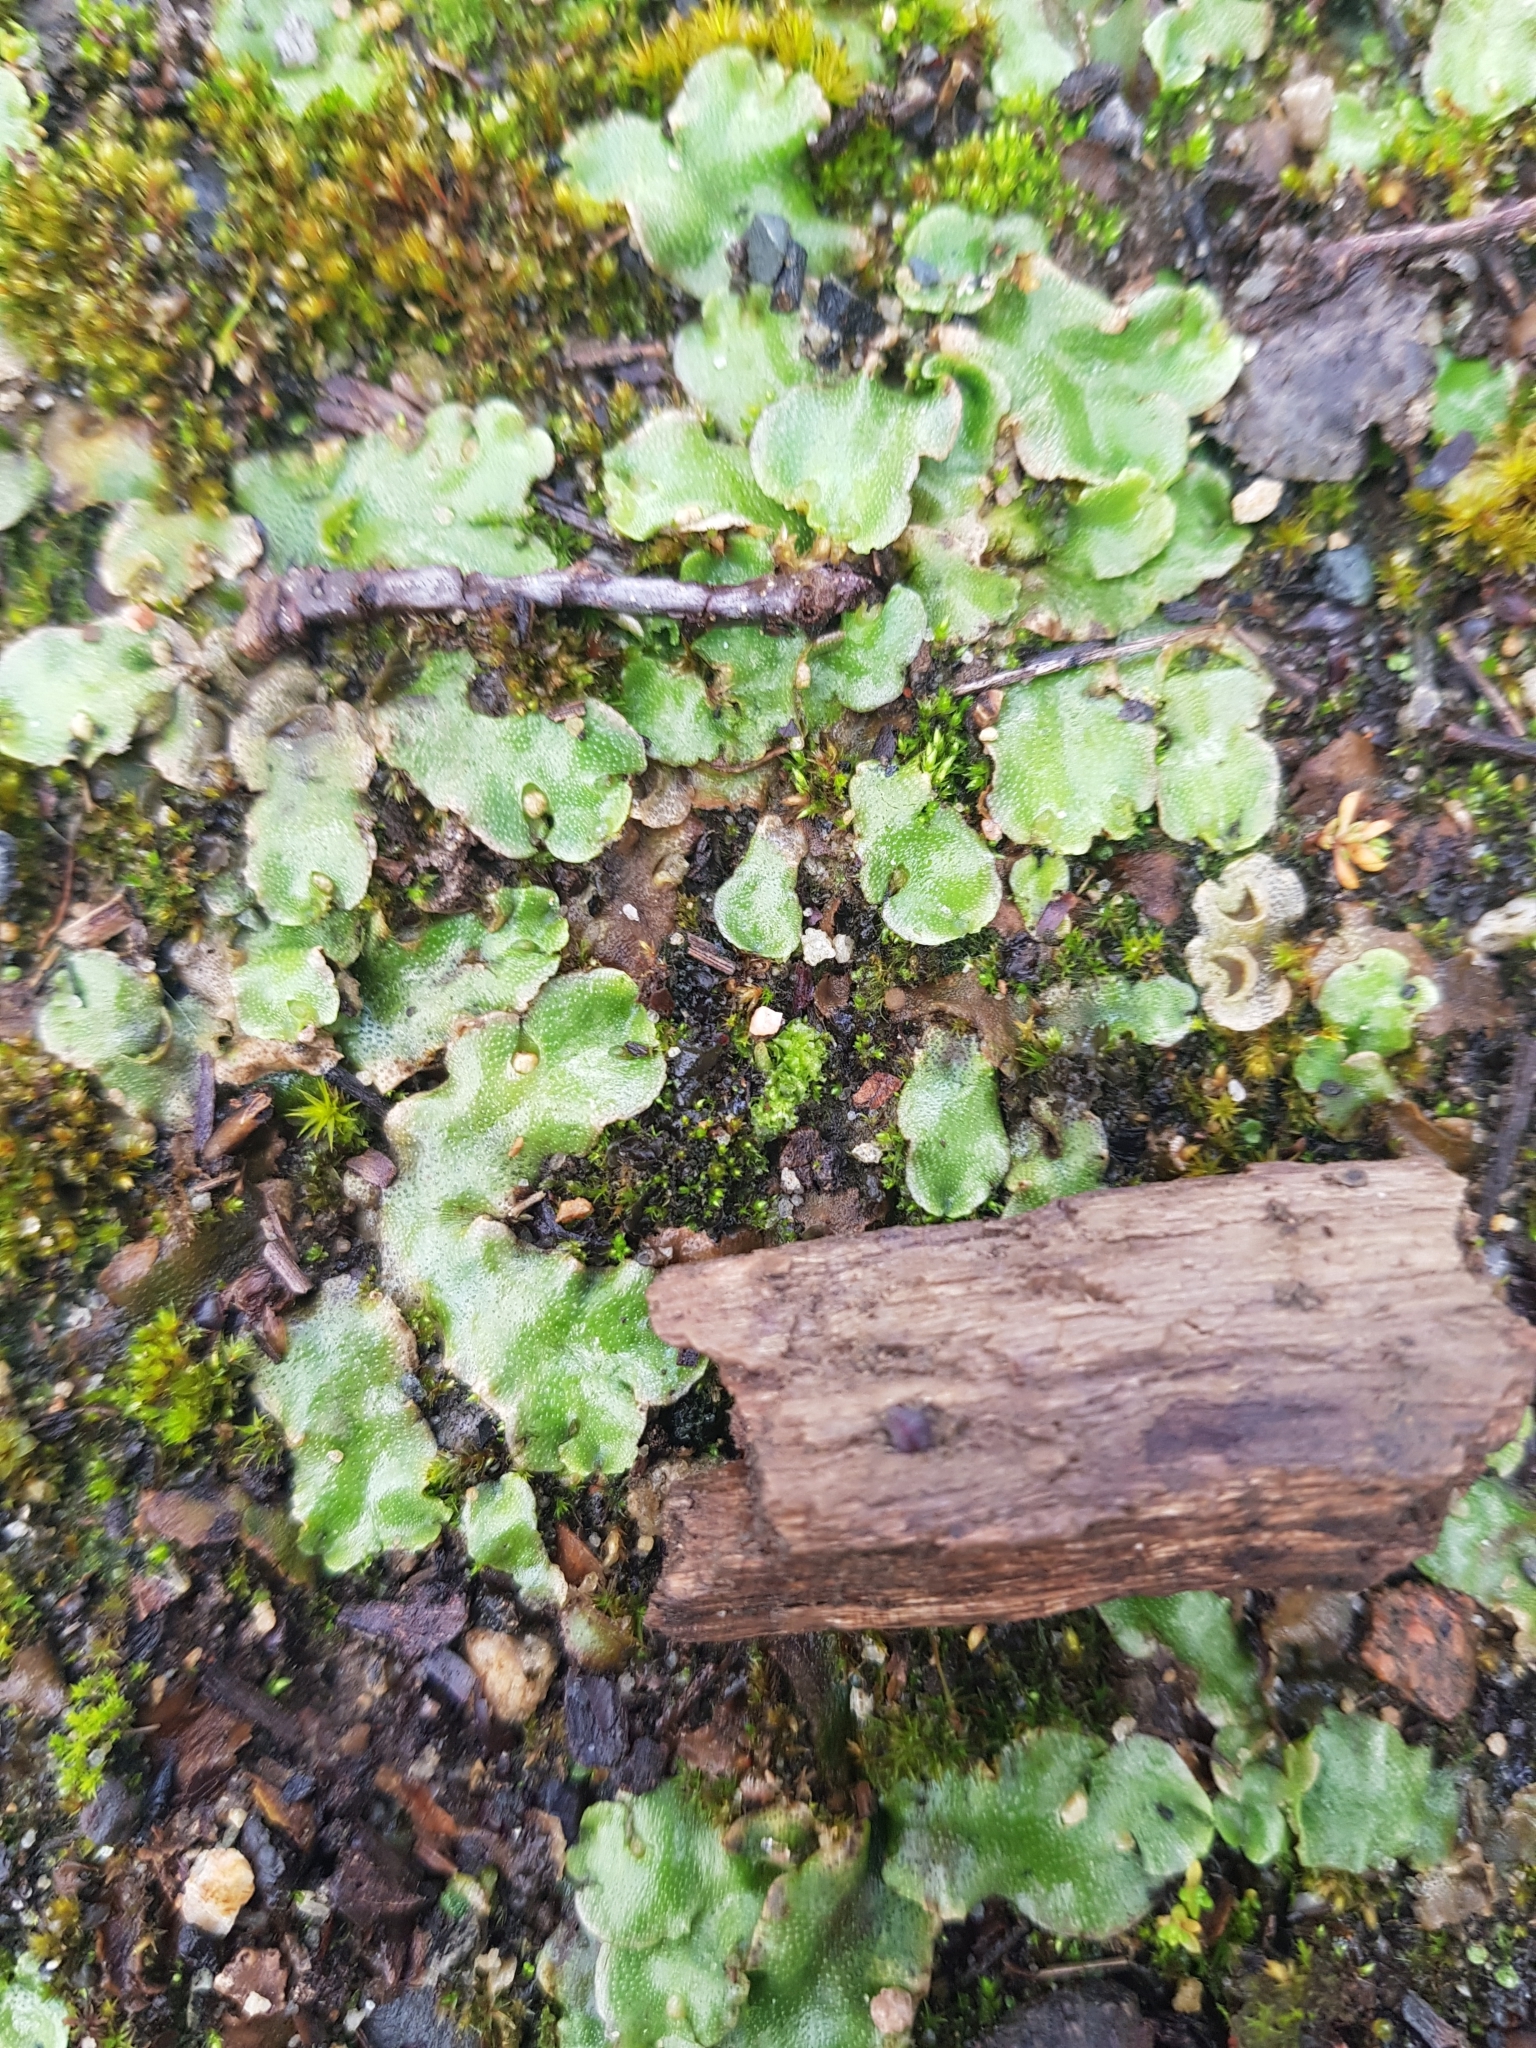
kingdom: Plantae
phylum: Marchantiophyta
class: Marchantiopsida
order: Lunulariales
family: Lunulariaceae
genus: Lunularia
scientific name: Lunularia cruciata
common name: Crescent-cup liverwort
